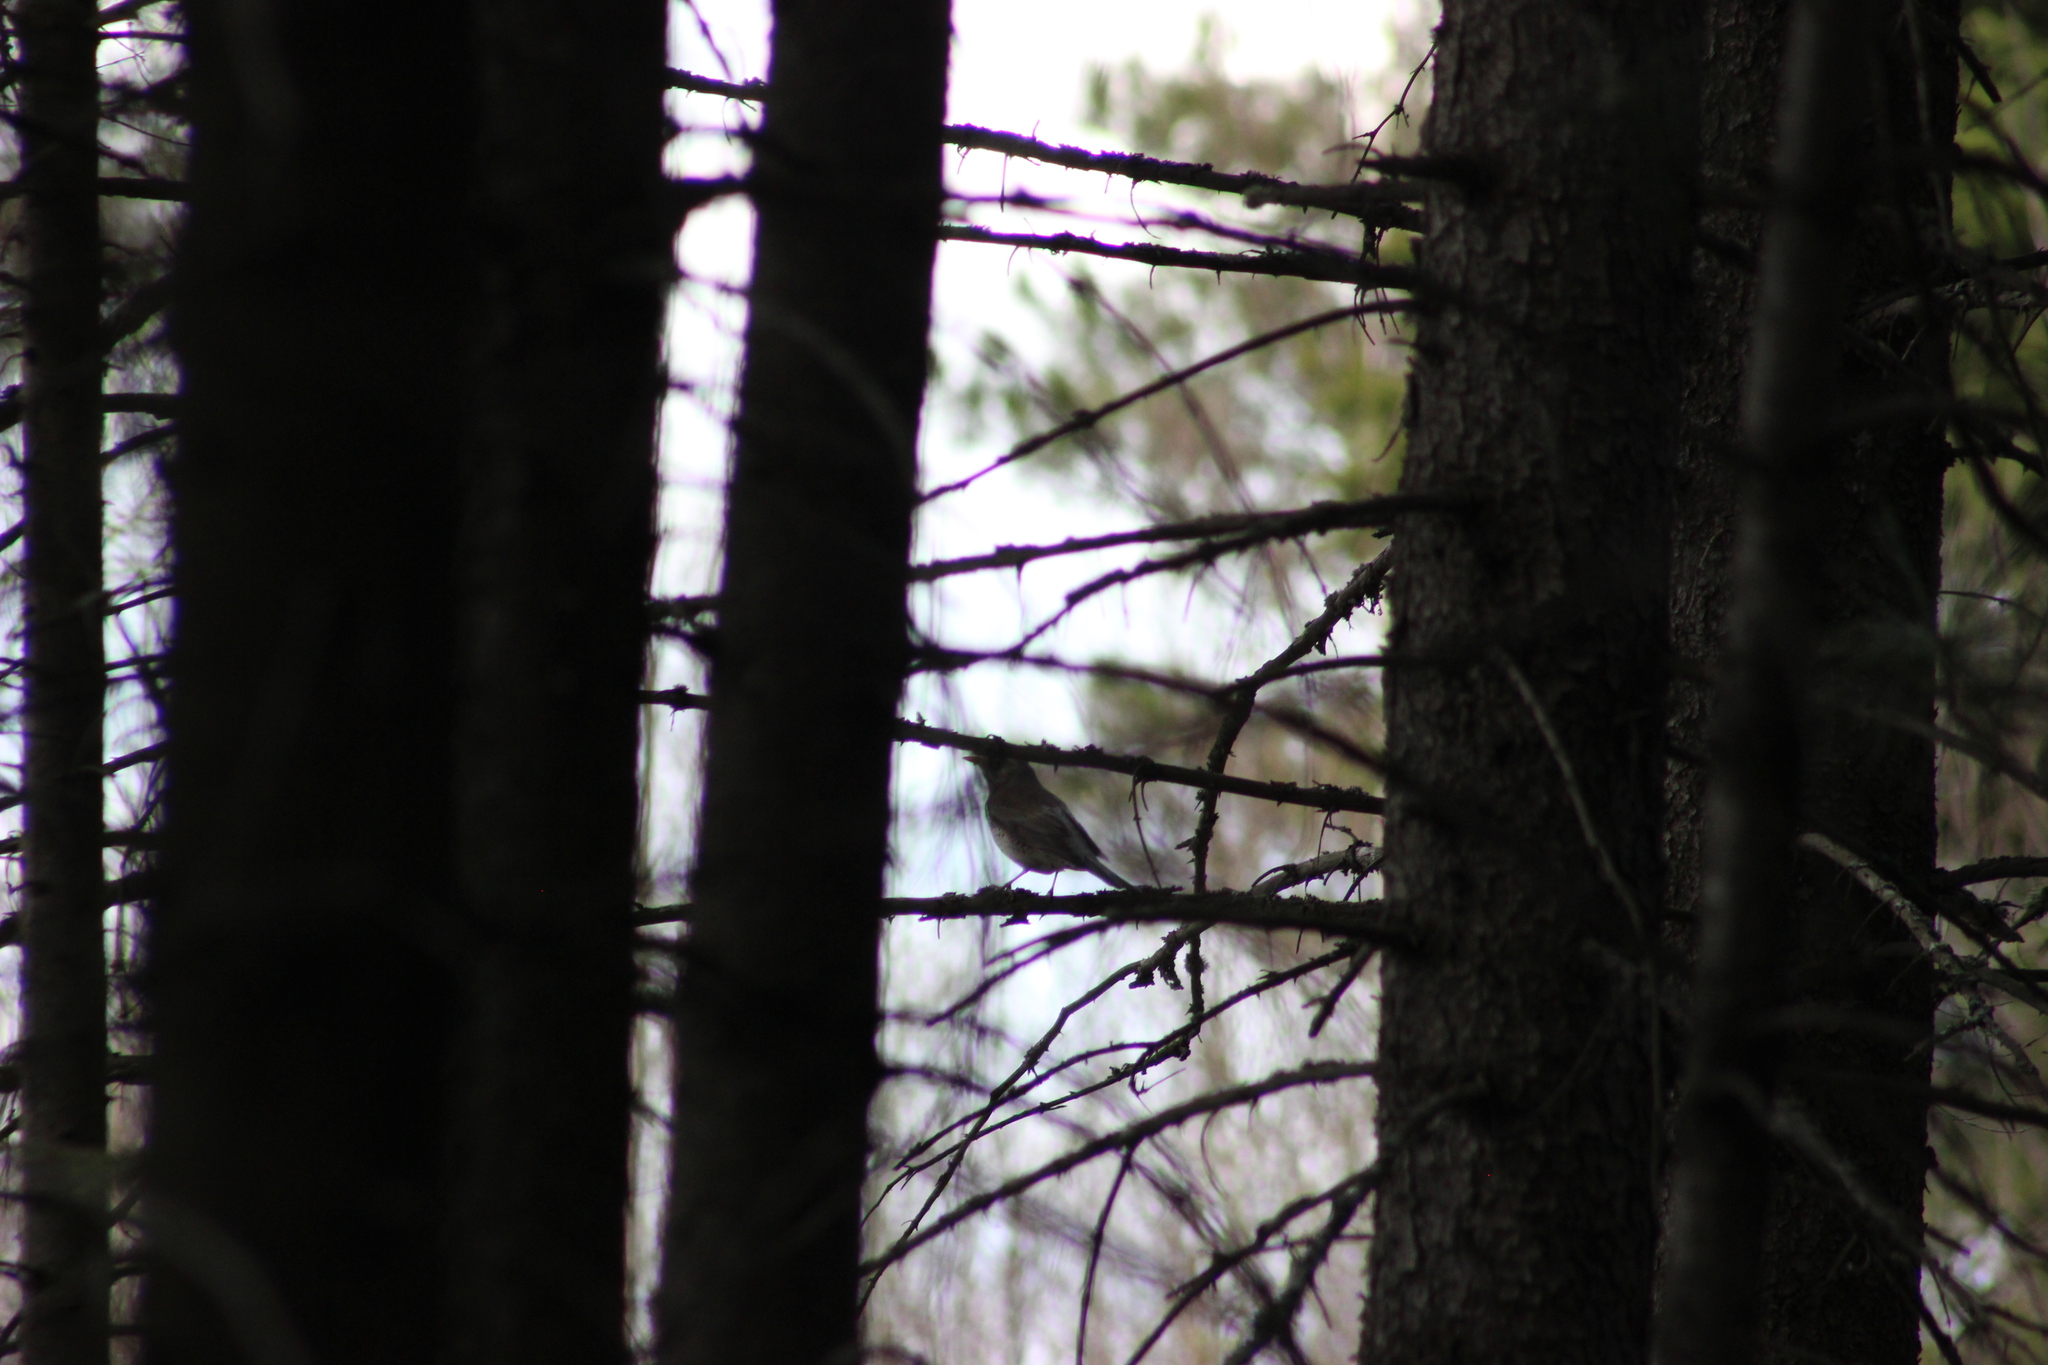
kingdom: Animalia
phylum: Chordata
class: Aves
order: Passeriformes
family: Turdidae
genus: Turdus
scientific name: Turdus pilaris
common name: Fieldfare
